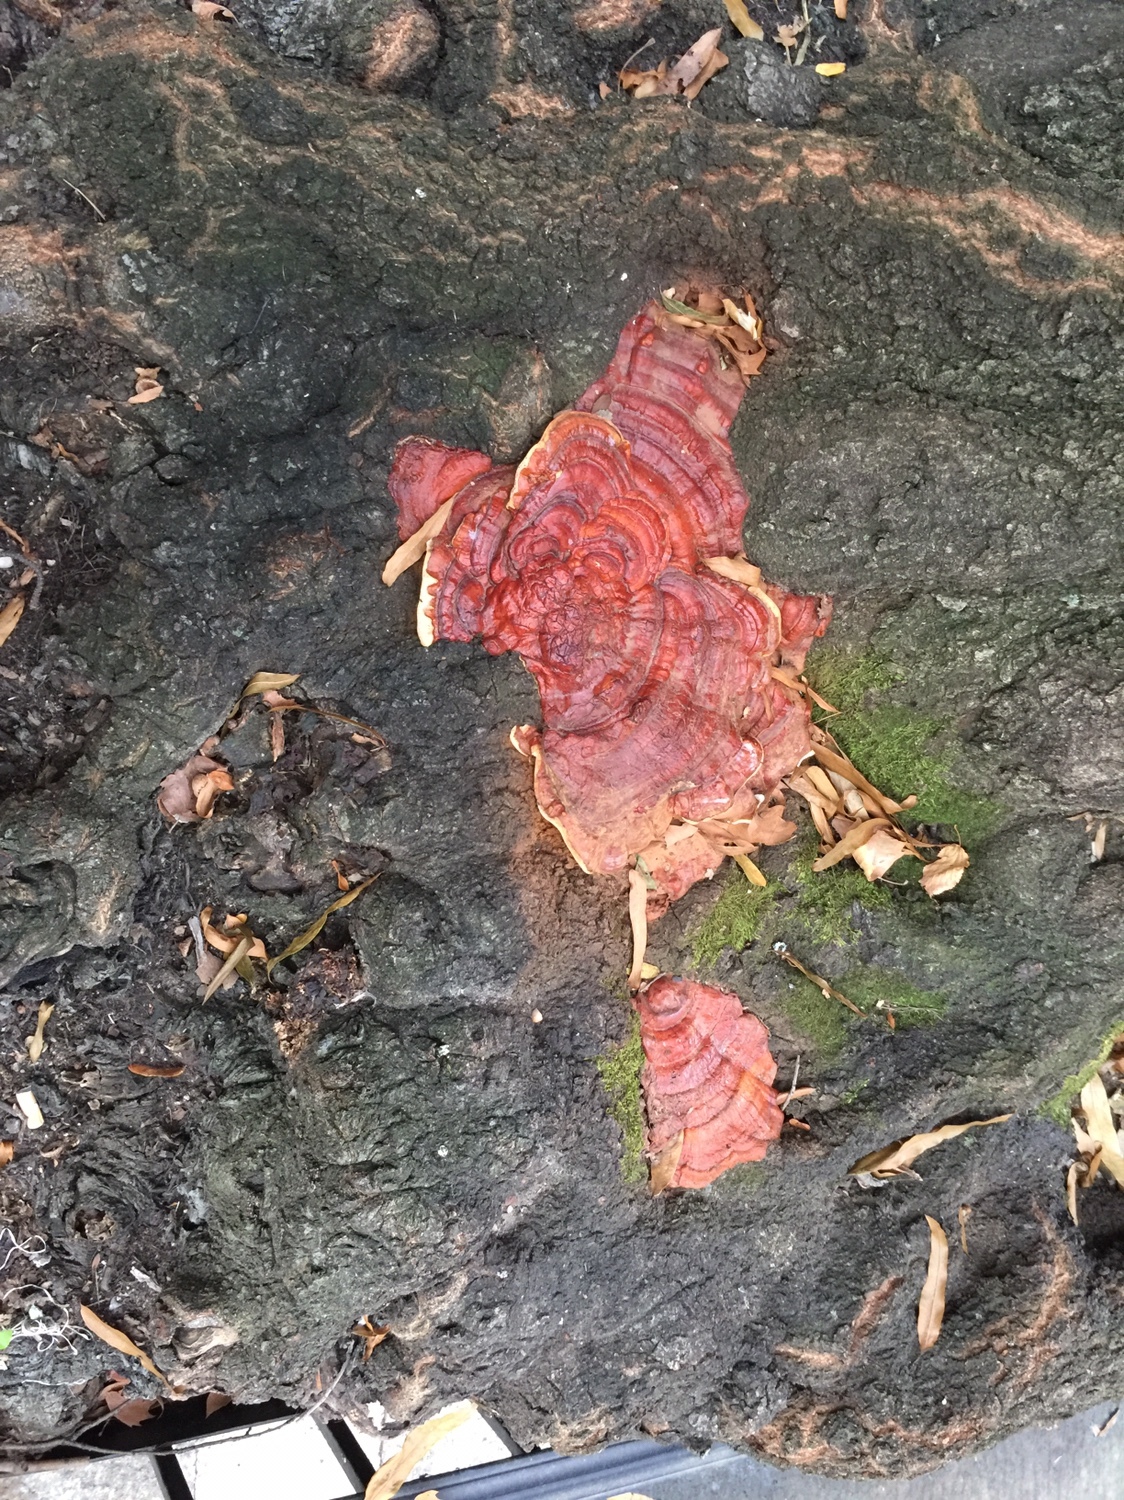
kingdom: Fungi
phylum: Basidiomycota
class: Agaricomycetes
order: Polyporales
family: Polyporaceae
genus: Ganoderma
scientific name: Ganoderma resinaceum
